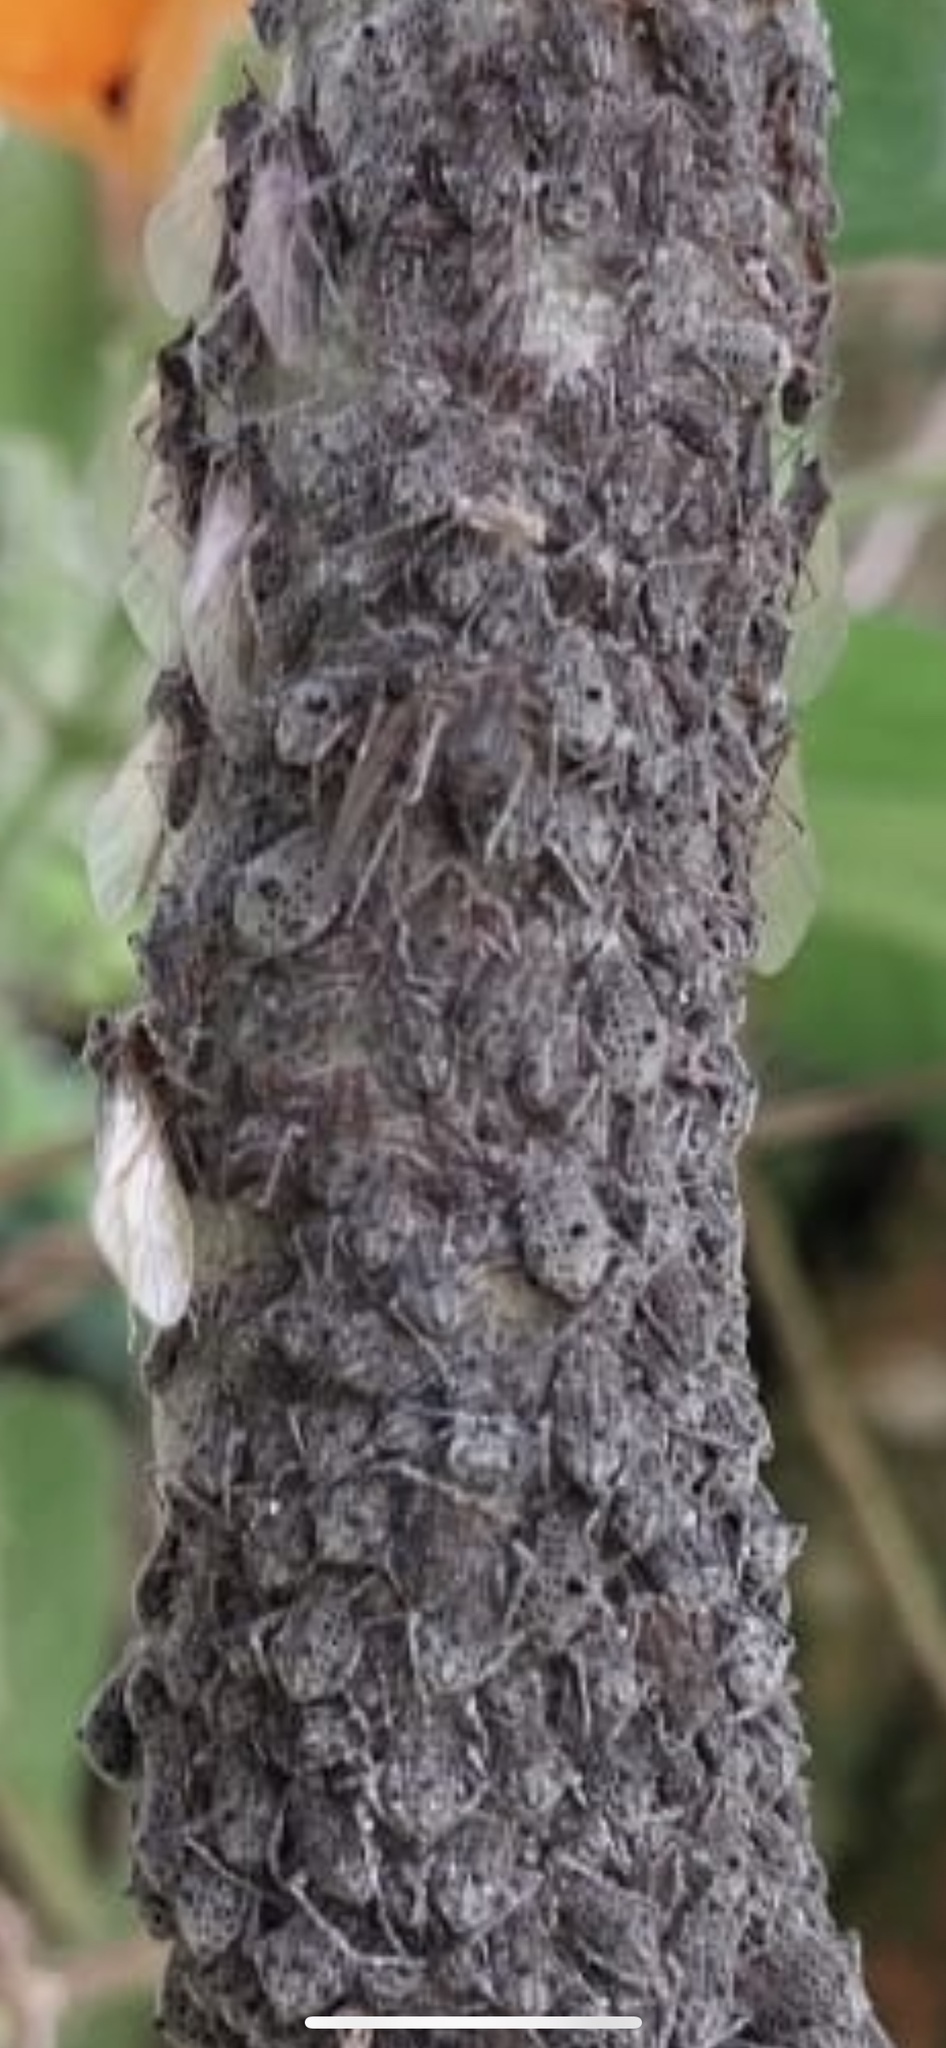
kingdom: Animalia
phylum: Arthropoda
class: Insecta
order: Hemiptera
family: Aphididae
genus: Tuberolachnus
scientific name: Tuberolachnus salignus
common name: Giant willow aphid
